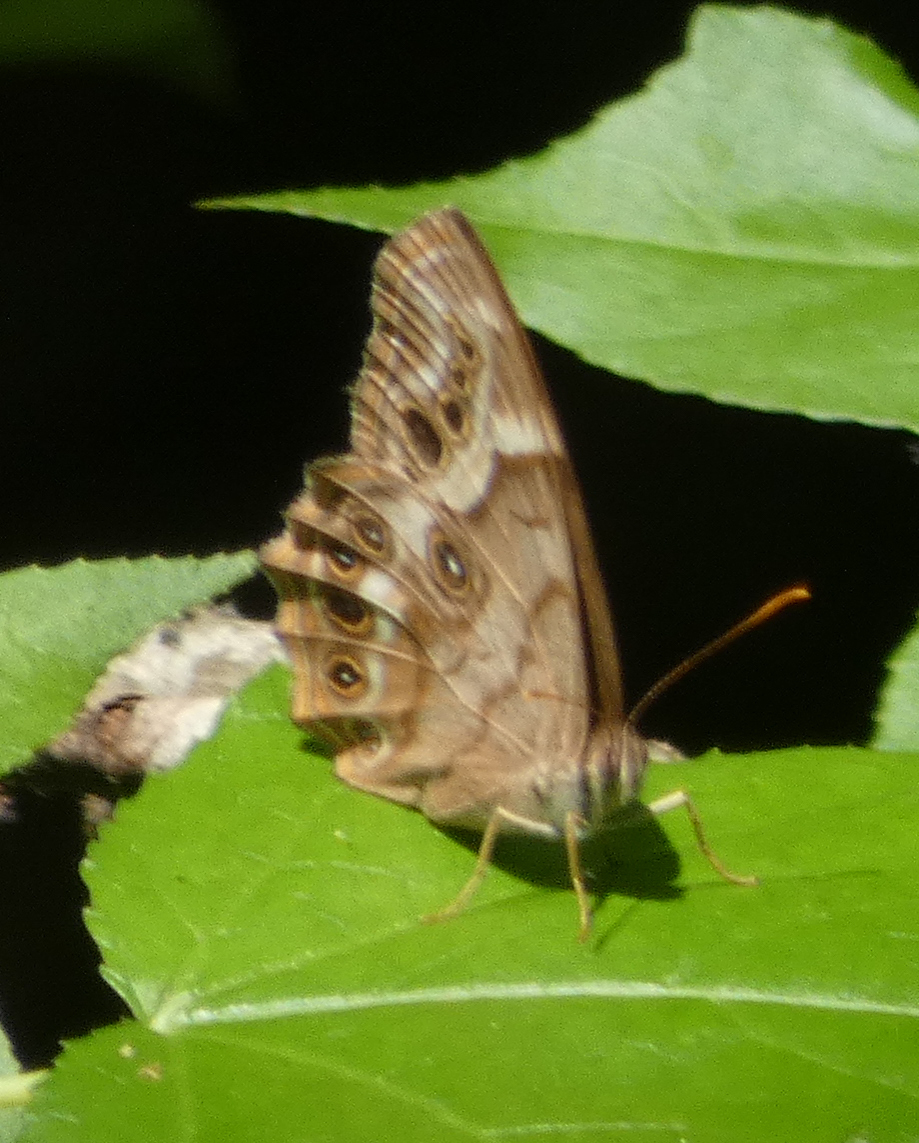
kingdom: Animalia
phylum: Arthropoda
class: Insecta
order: Lepidoptera
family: Nymphalidae
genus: Enodia
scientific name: Enodia portlandia
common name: Southern pearly-eye
